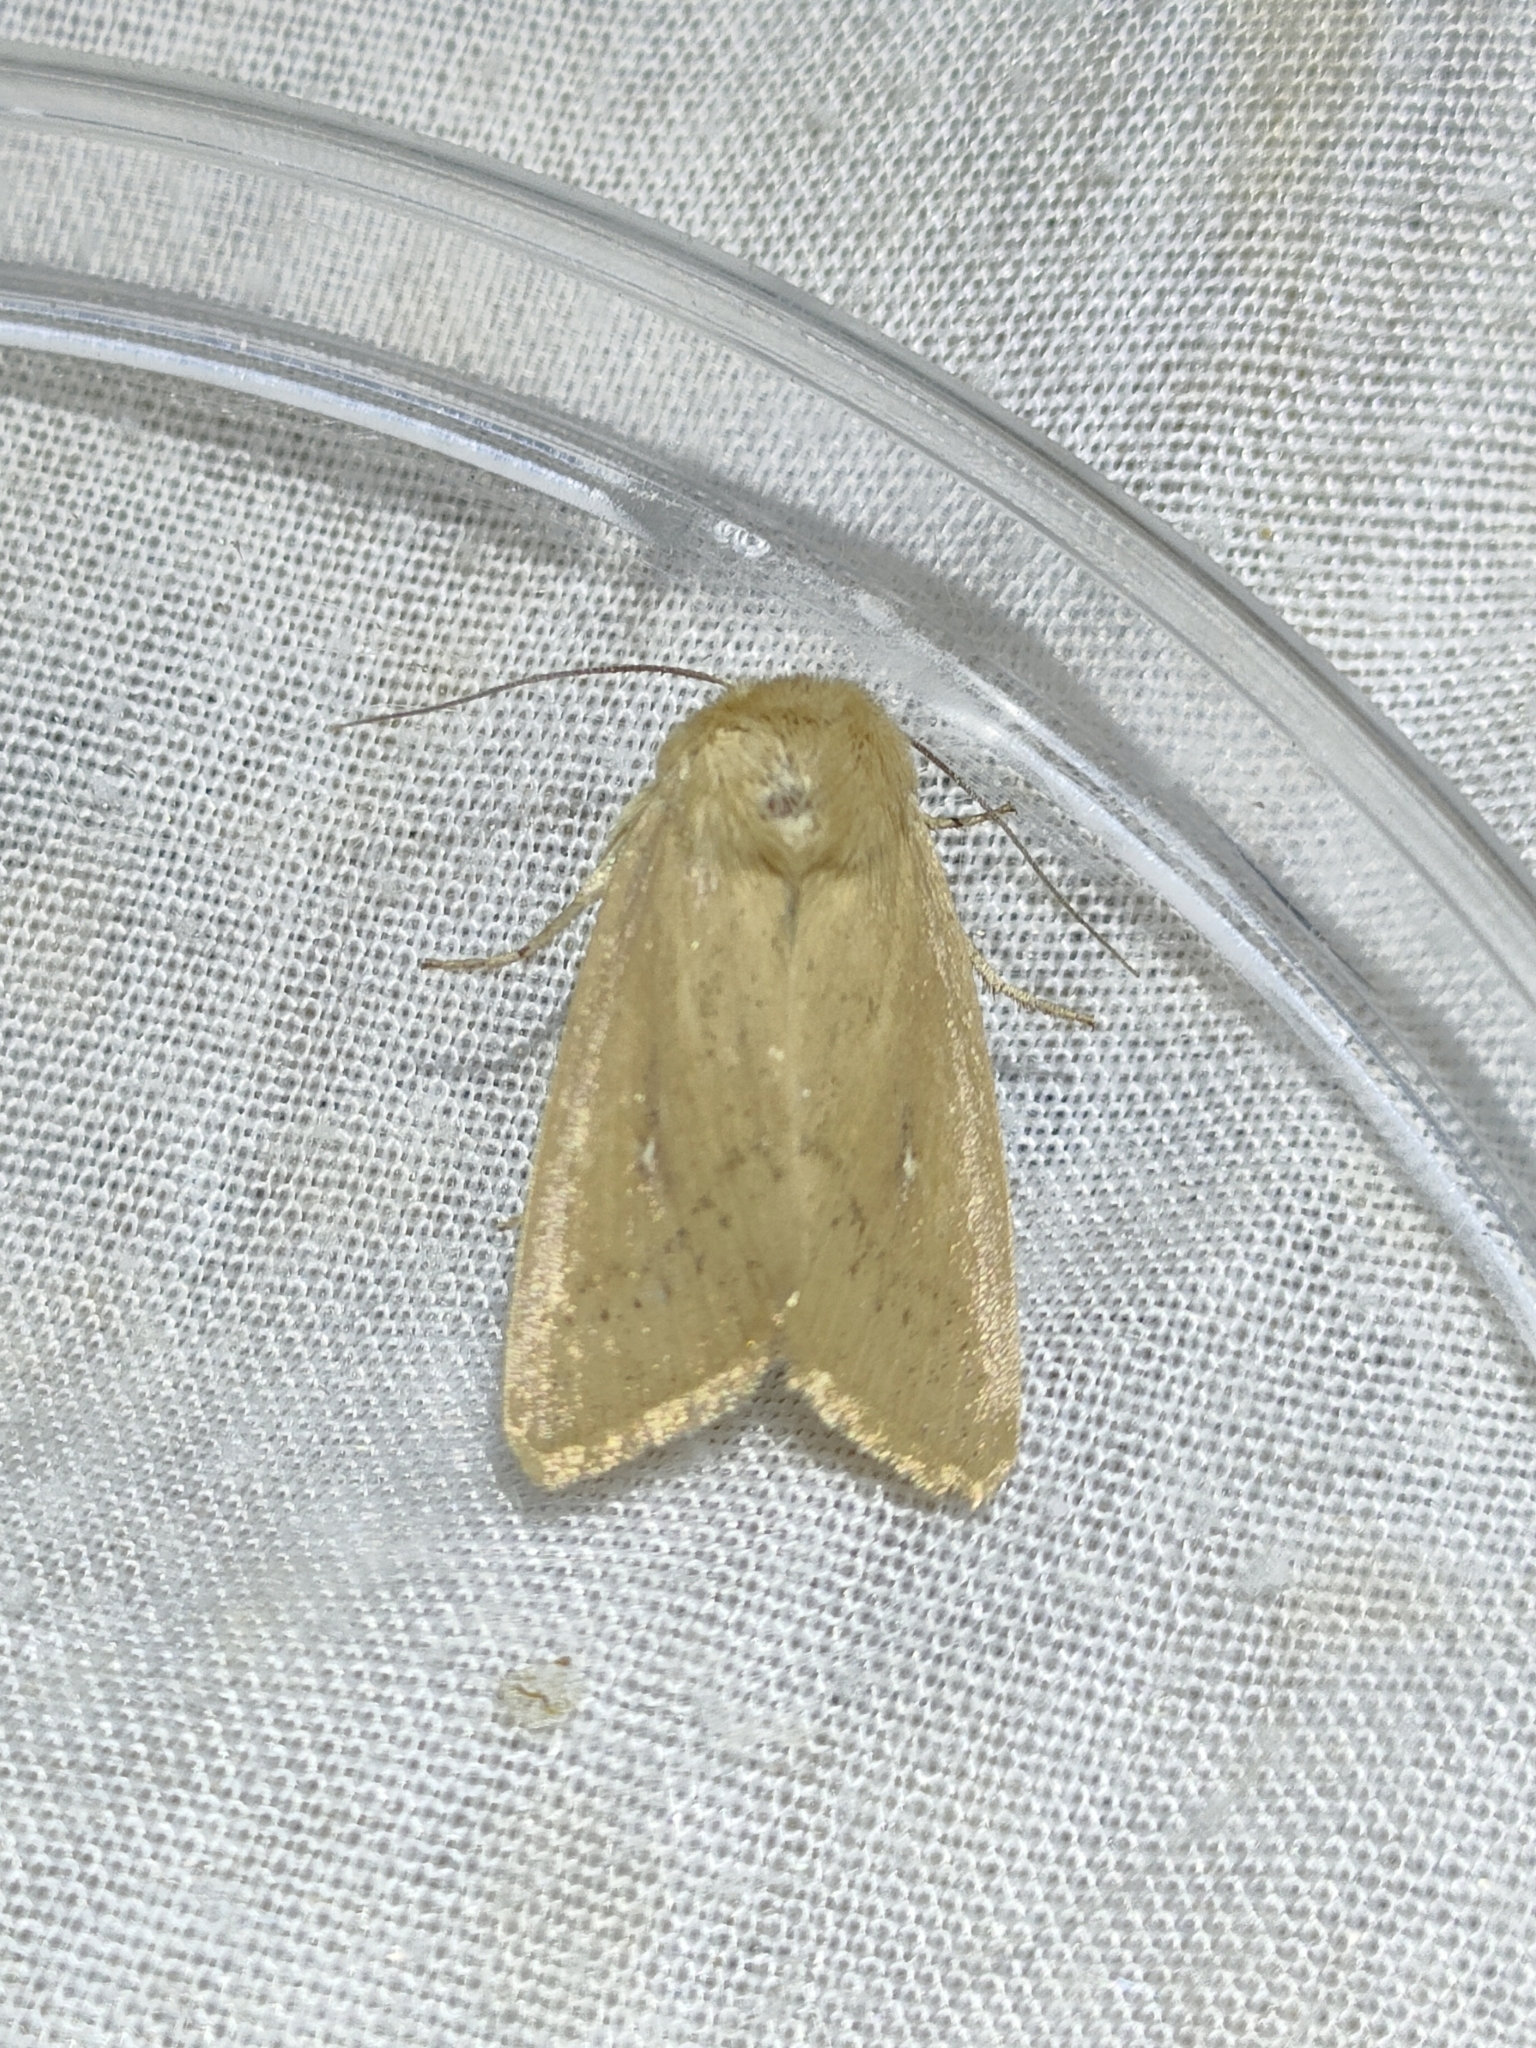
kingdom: Animalia
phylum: Arthropoda
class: Insecta
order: Lepidoptera
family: Noctuidae
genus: Mythimna
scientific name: Mythimna sicula
